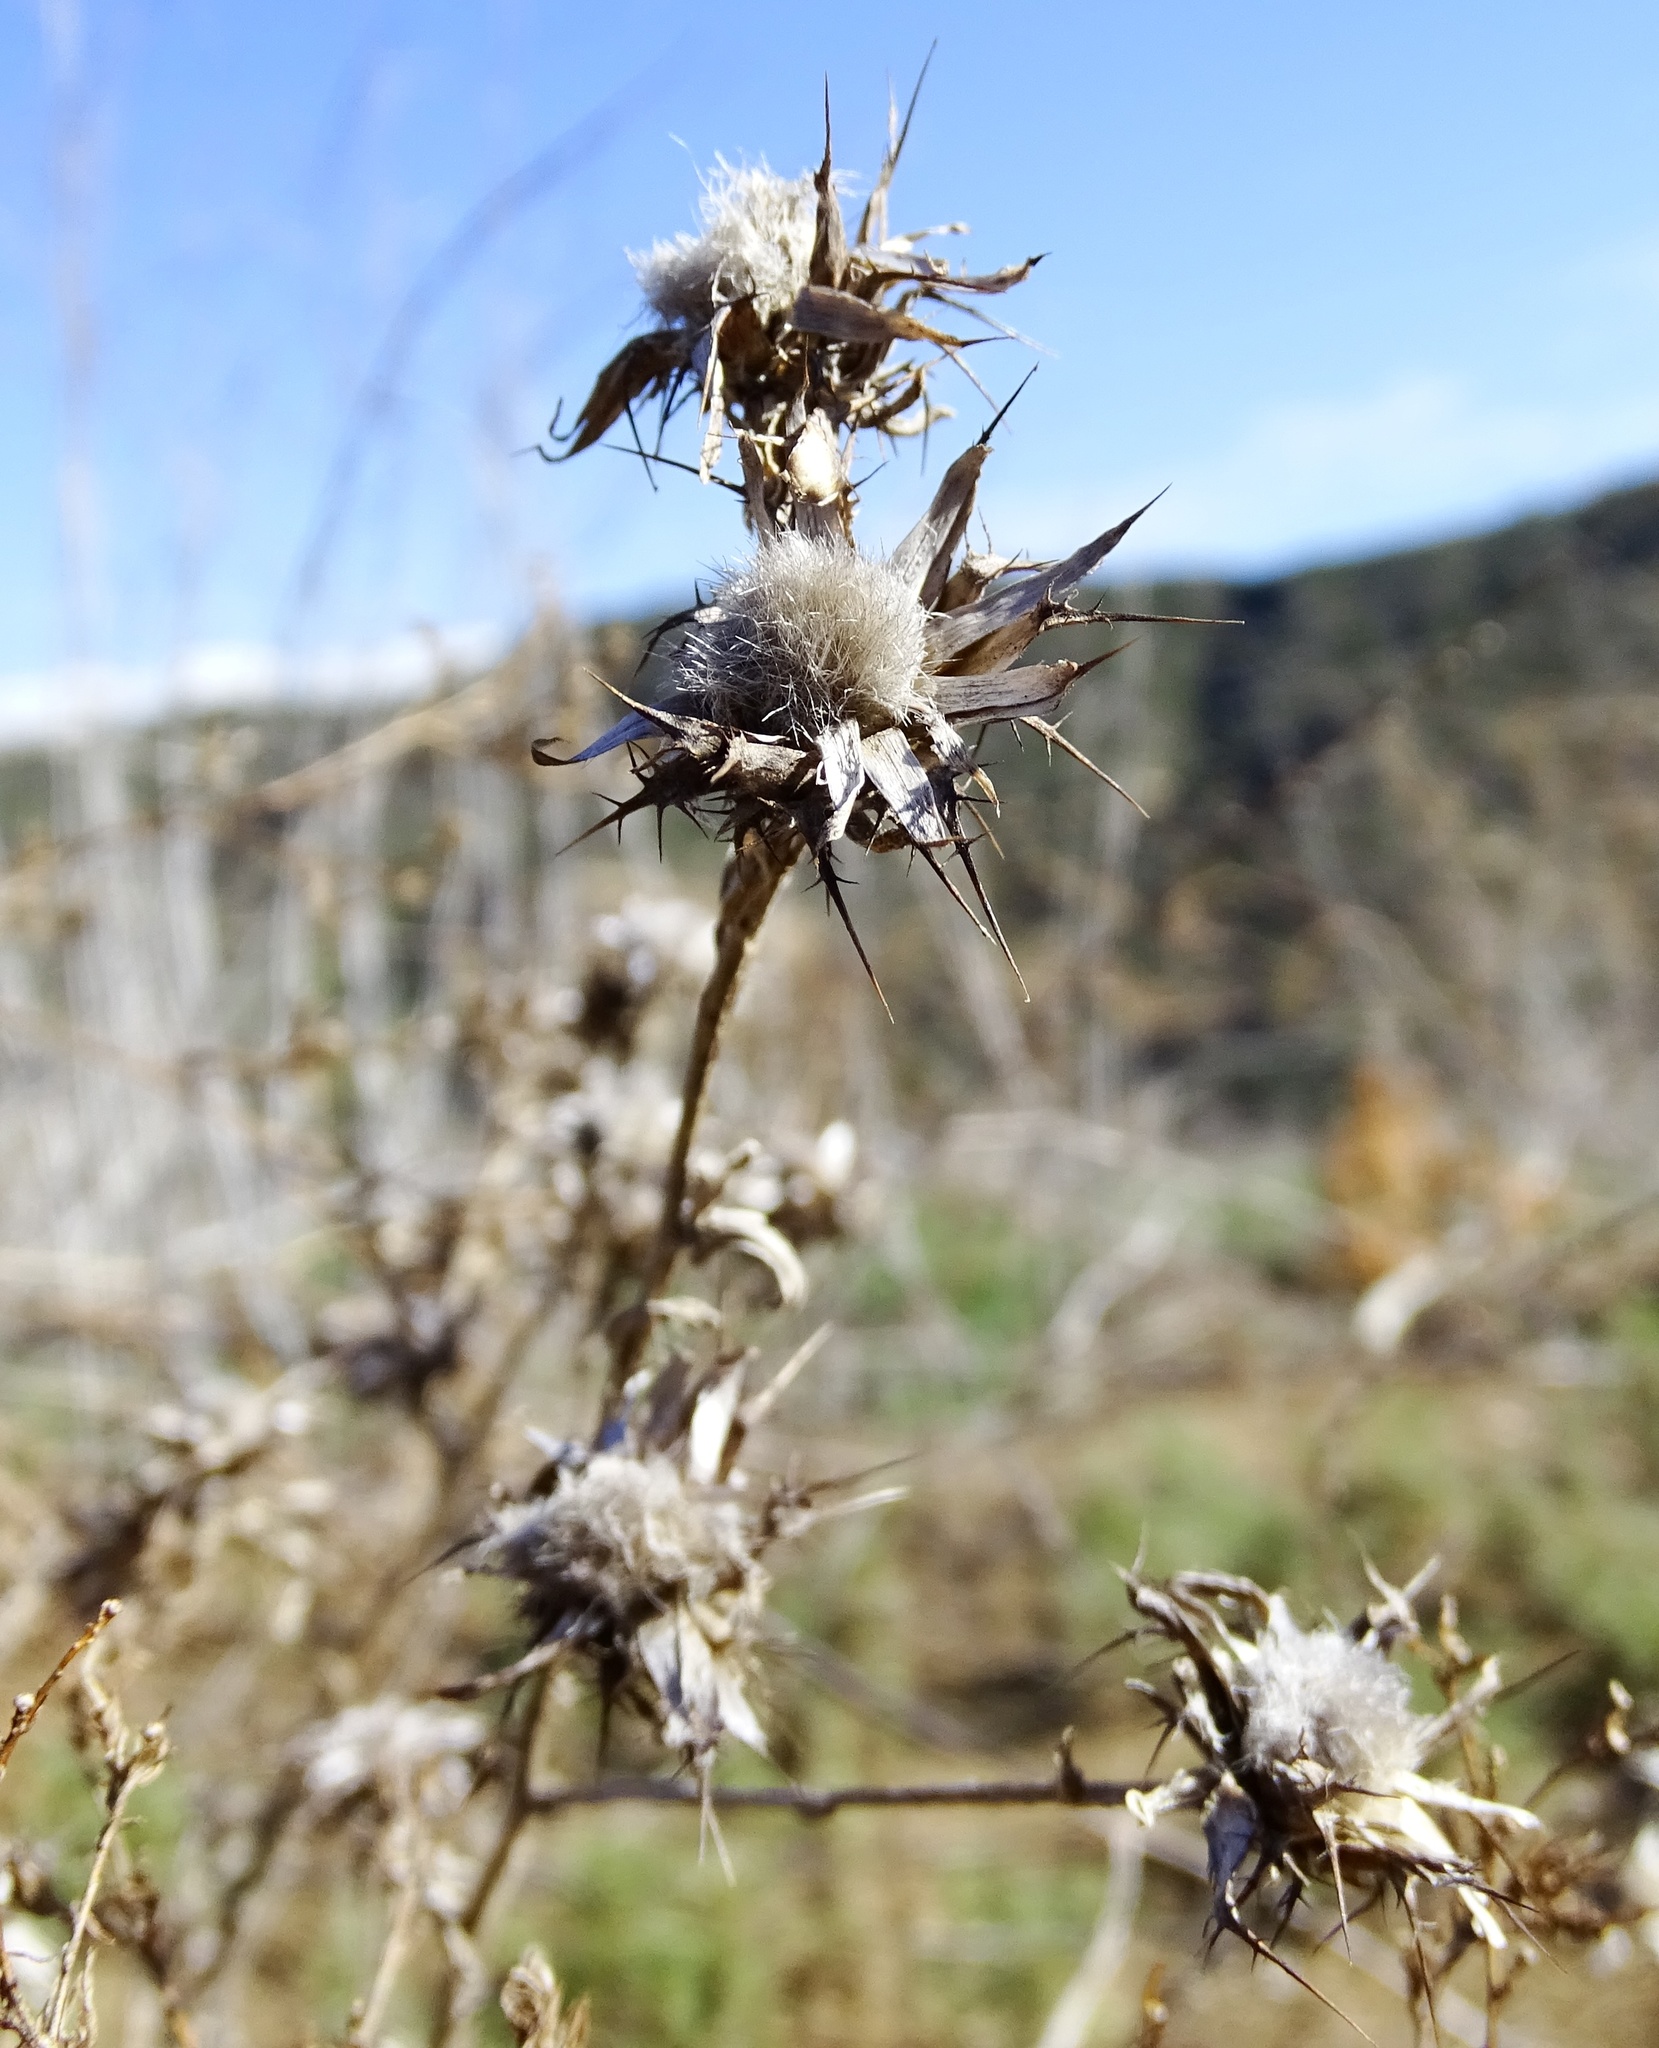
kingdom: Plantae
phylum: Tracheophyta
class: Magnoliopsida
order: Asterales
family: Asteraceae
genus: Centaurea
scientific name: Centaurea melitensis
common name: Maltese star-thistle
